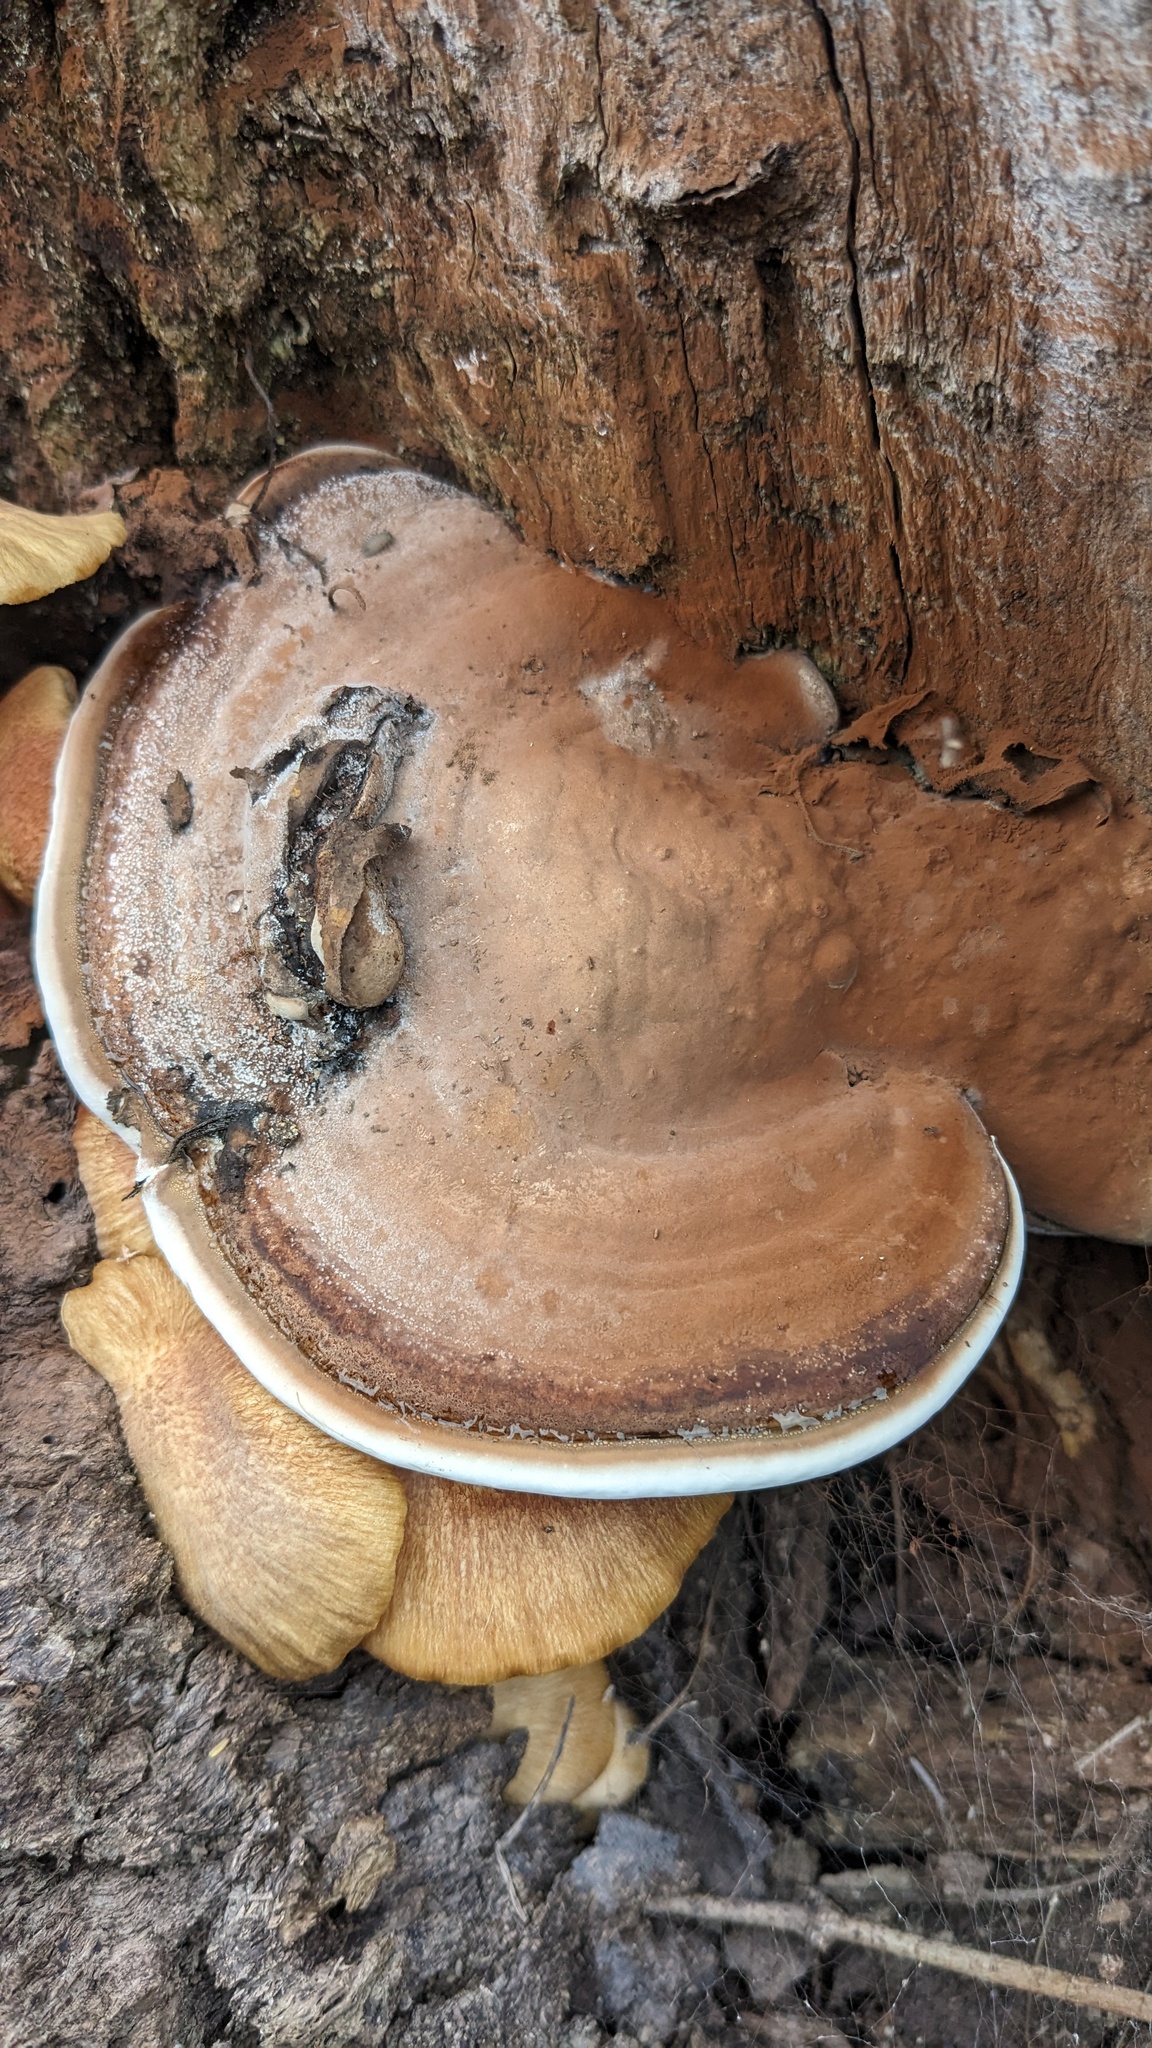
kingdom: Fungi
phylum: Basidiomycota
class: Agaricomycetes
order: Polyporales
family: Polyporaceae
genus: Ganoderma
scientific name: Ganoderma applanatum
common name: Artist's bracket
